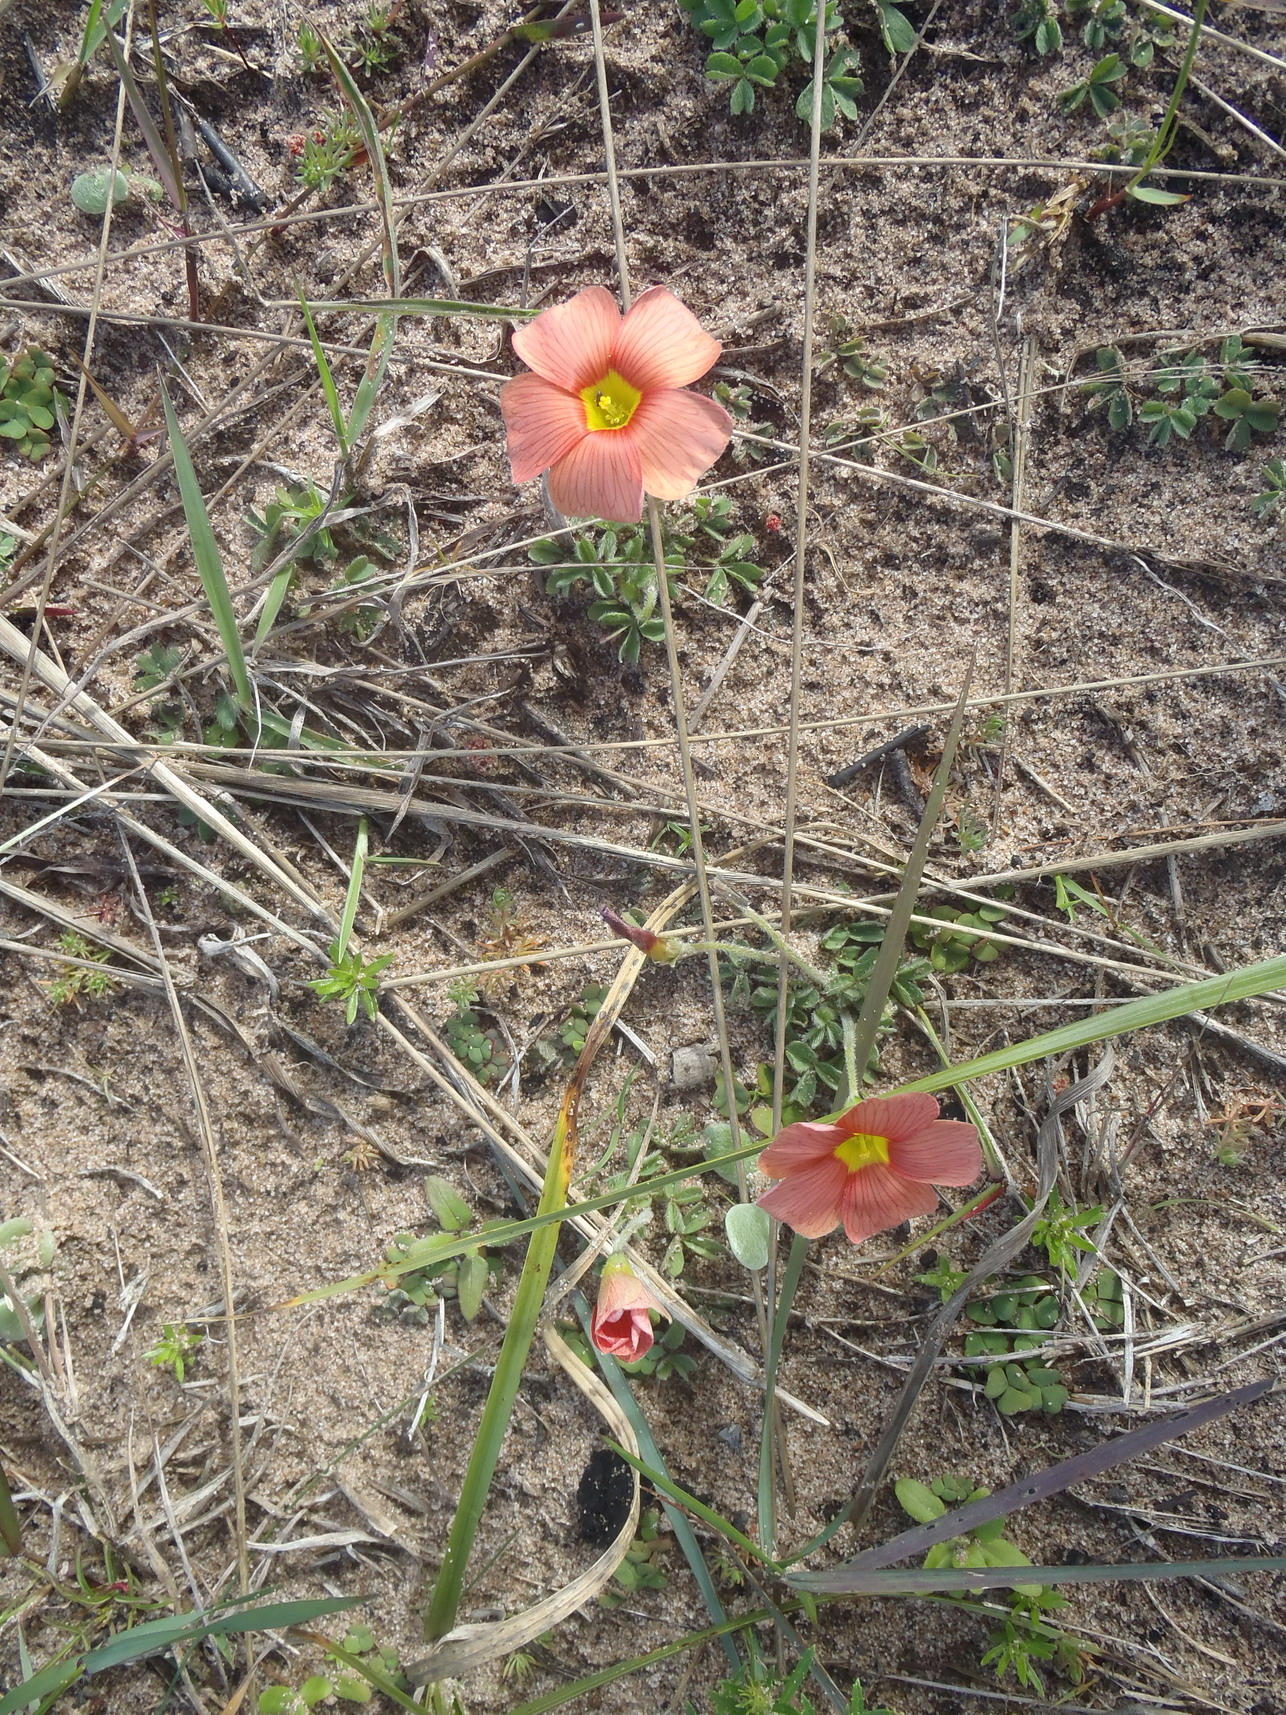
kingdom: Plantae
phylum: Tracheophyta
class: Magnoliopsida
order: Oxalidales
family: Oxalidaceae
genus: Oxalis
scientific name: Oxalis obtusa
